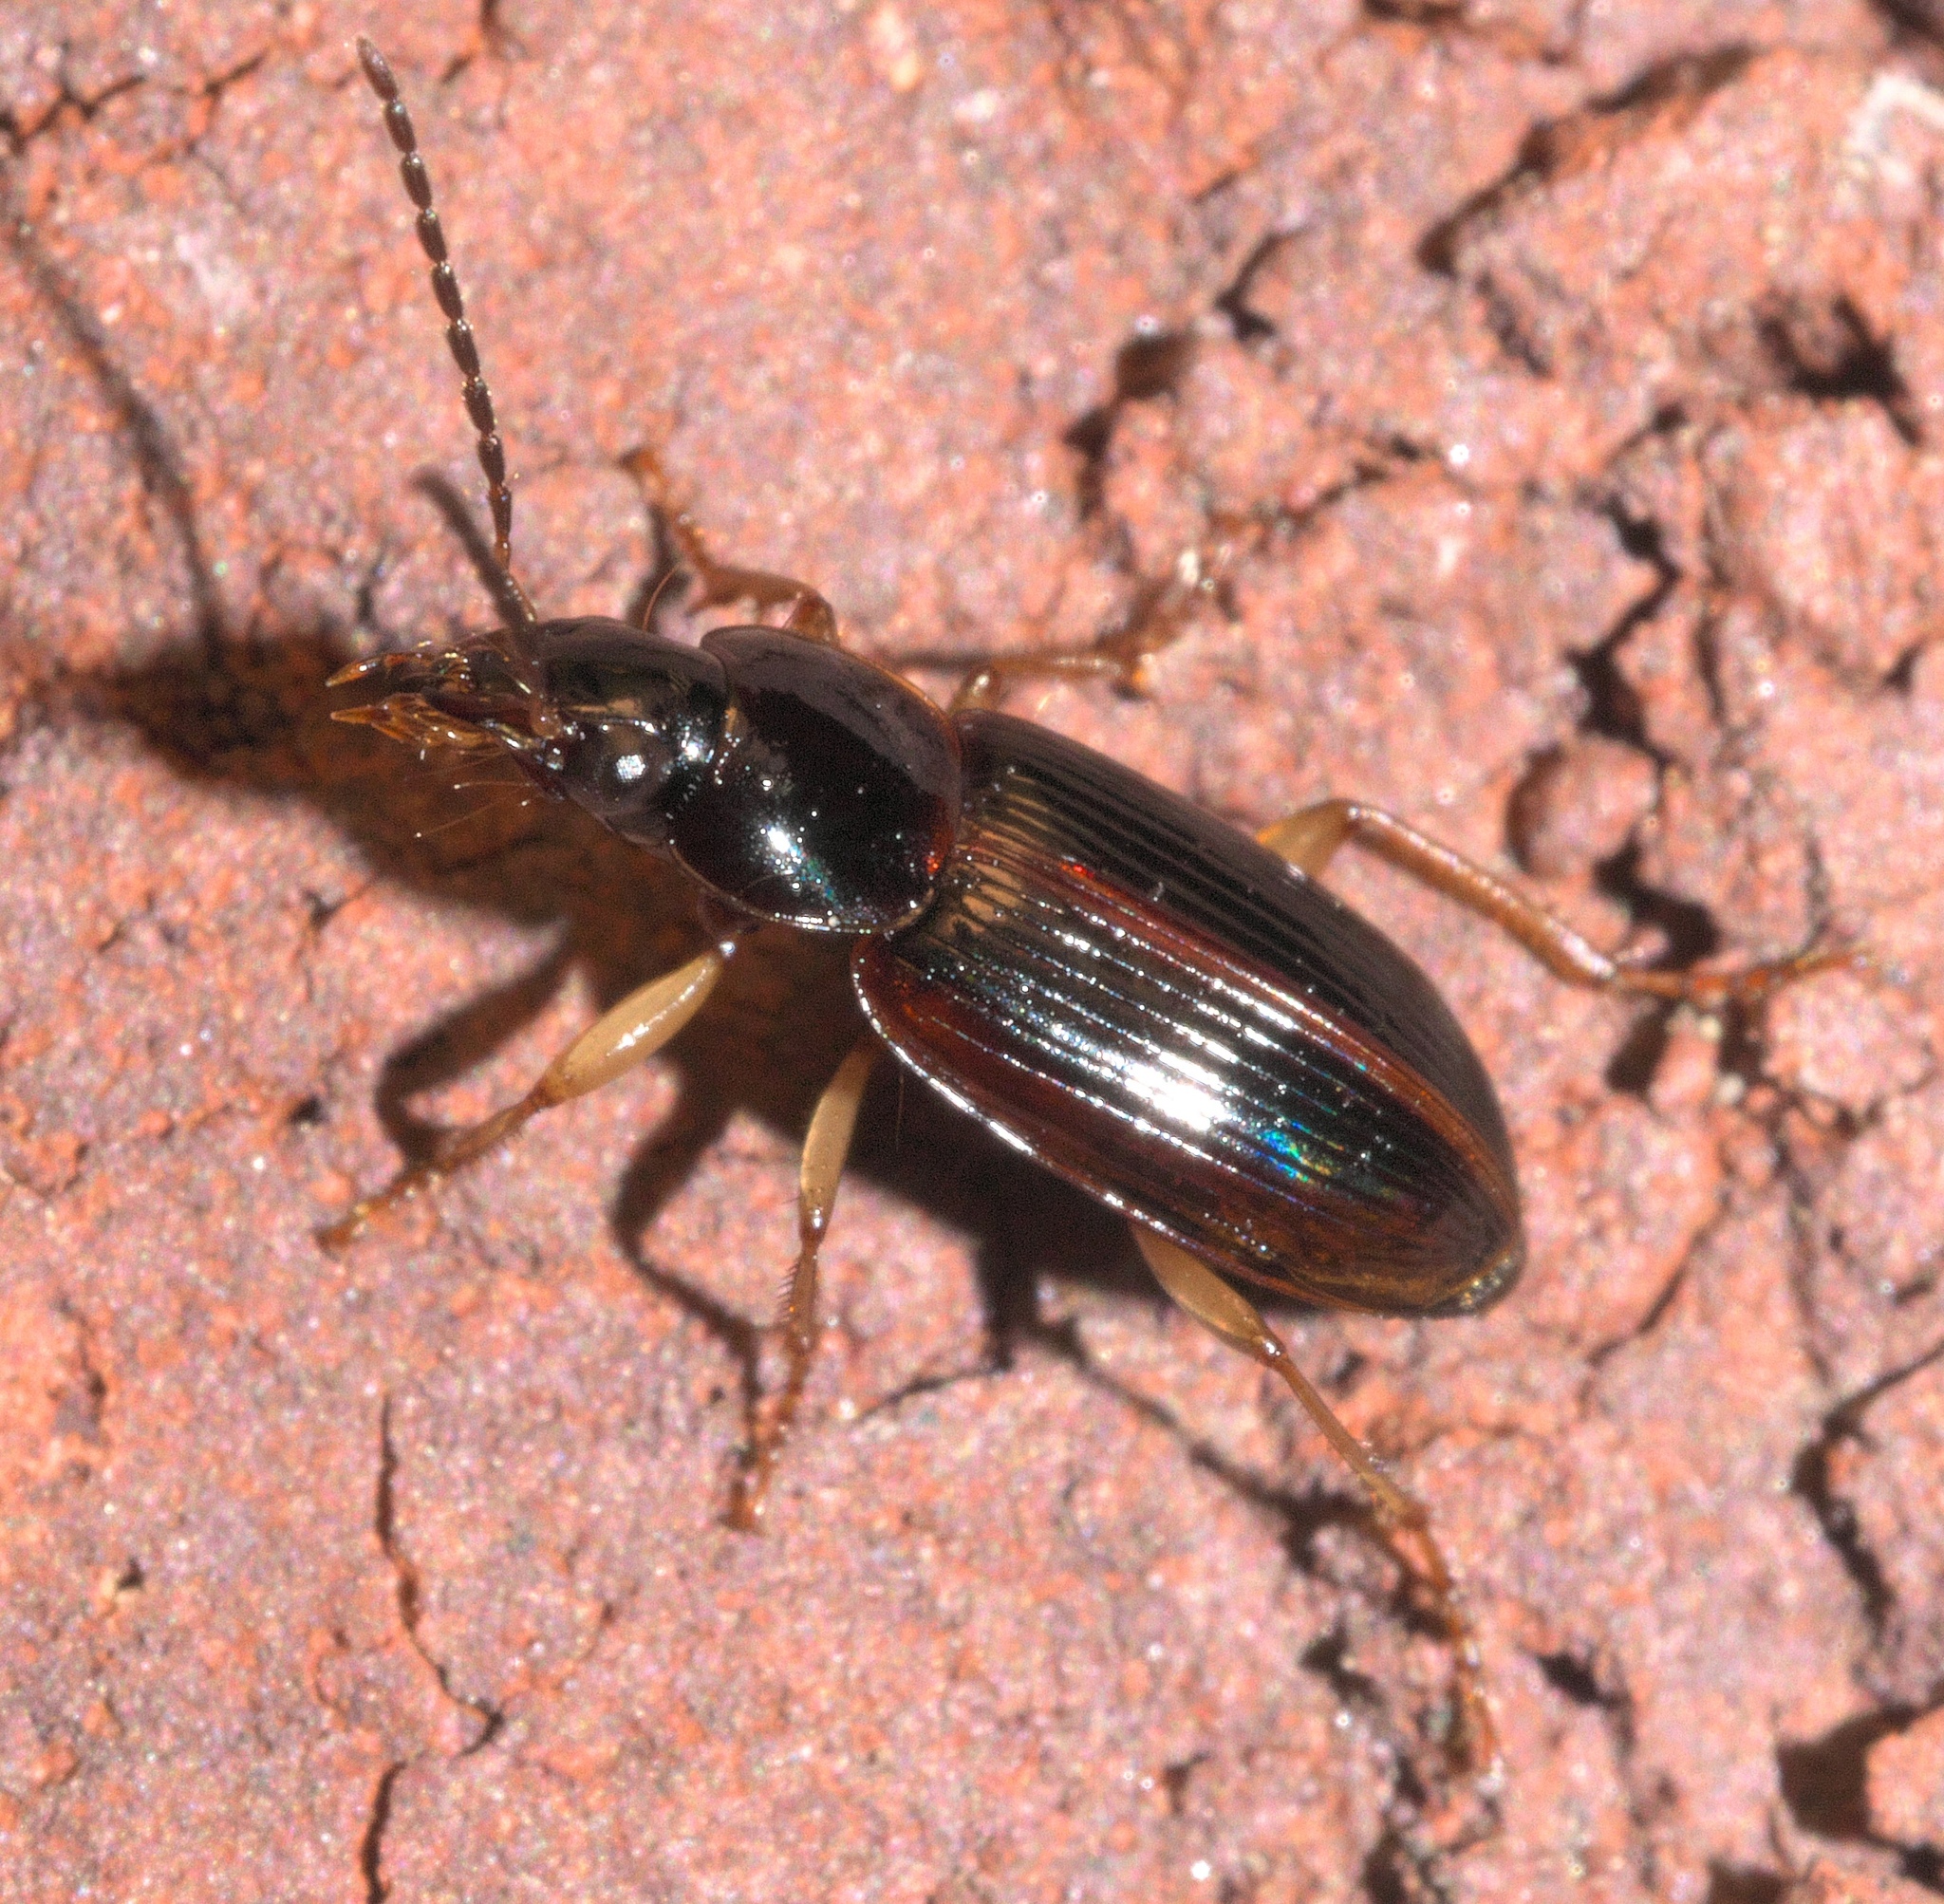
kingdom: Animalia
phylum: Arthropoda
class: Insecta
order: Coleoptera
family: Carabidae
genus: Stenolophus
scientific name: Stenolophus ochropezus
